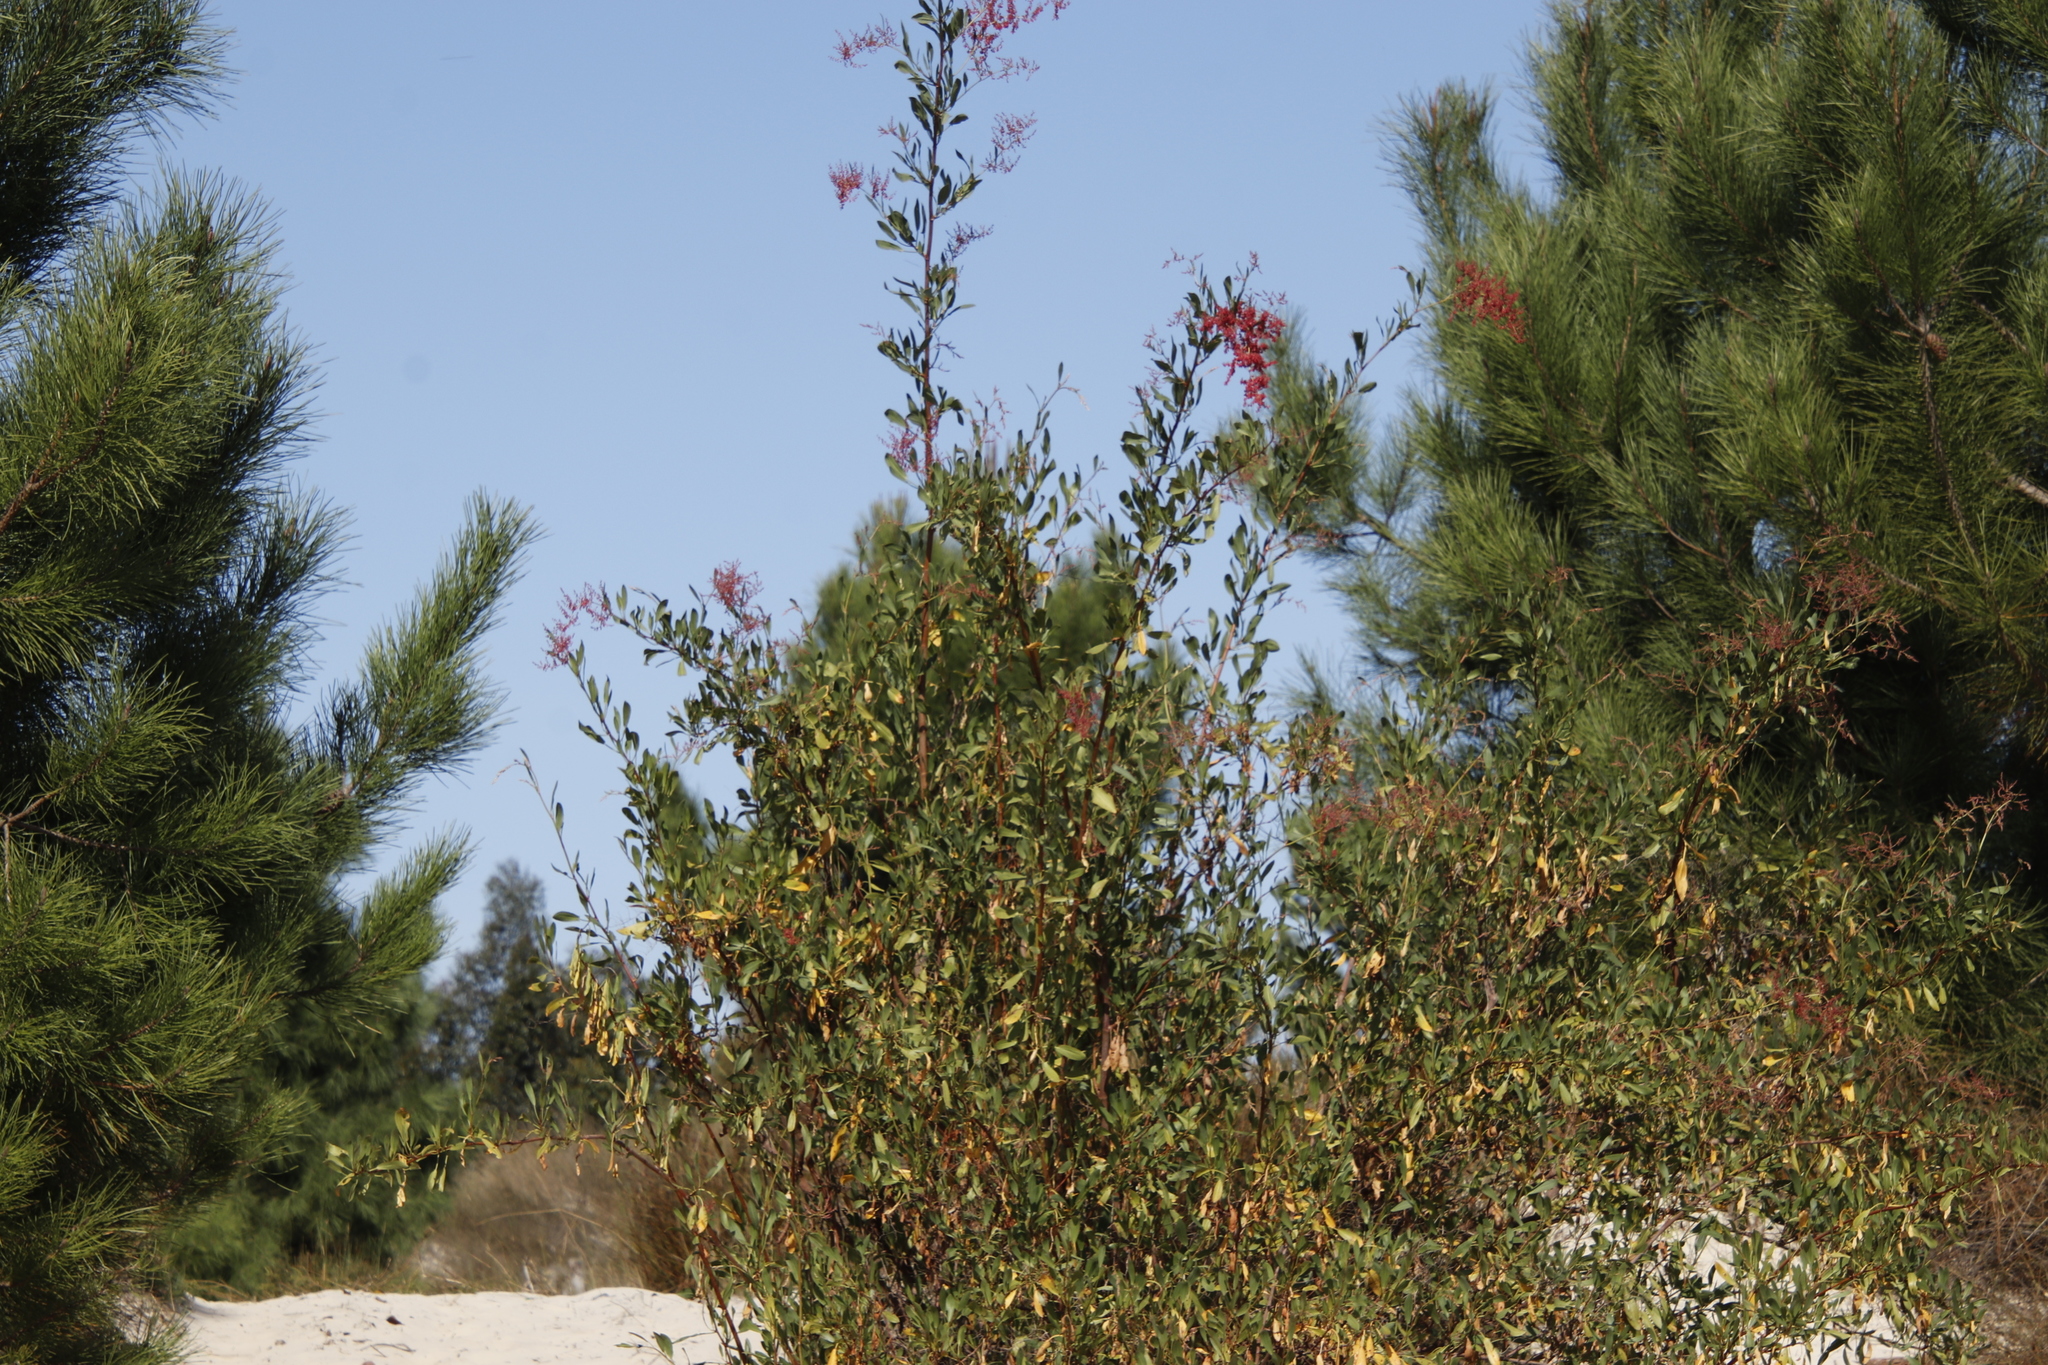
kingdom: Plantae
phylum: Tracheophyta
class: Magnoliopsida
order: Caryophyllales
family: Polygonaceae
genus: Rumex
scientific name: Rumex usambarensis
